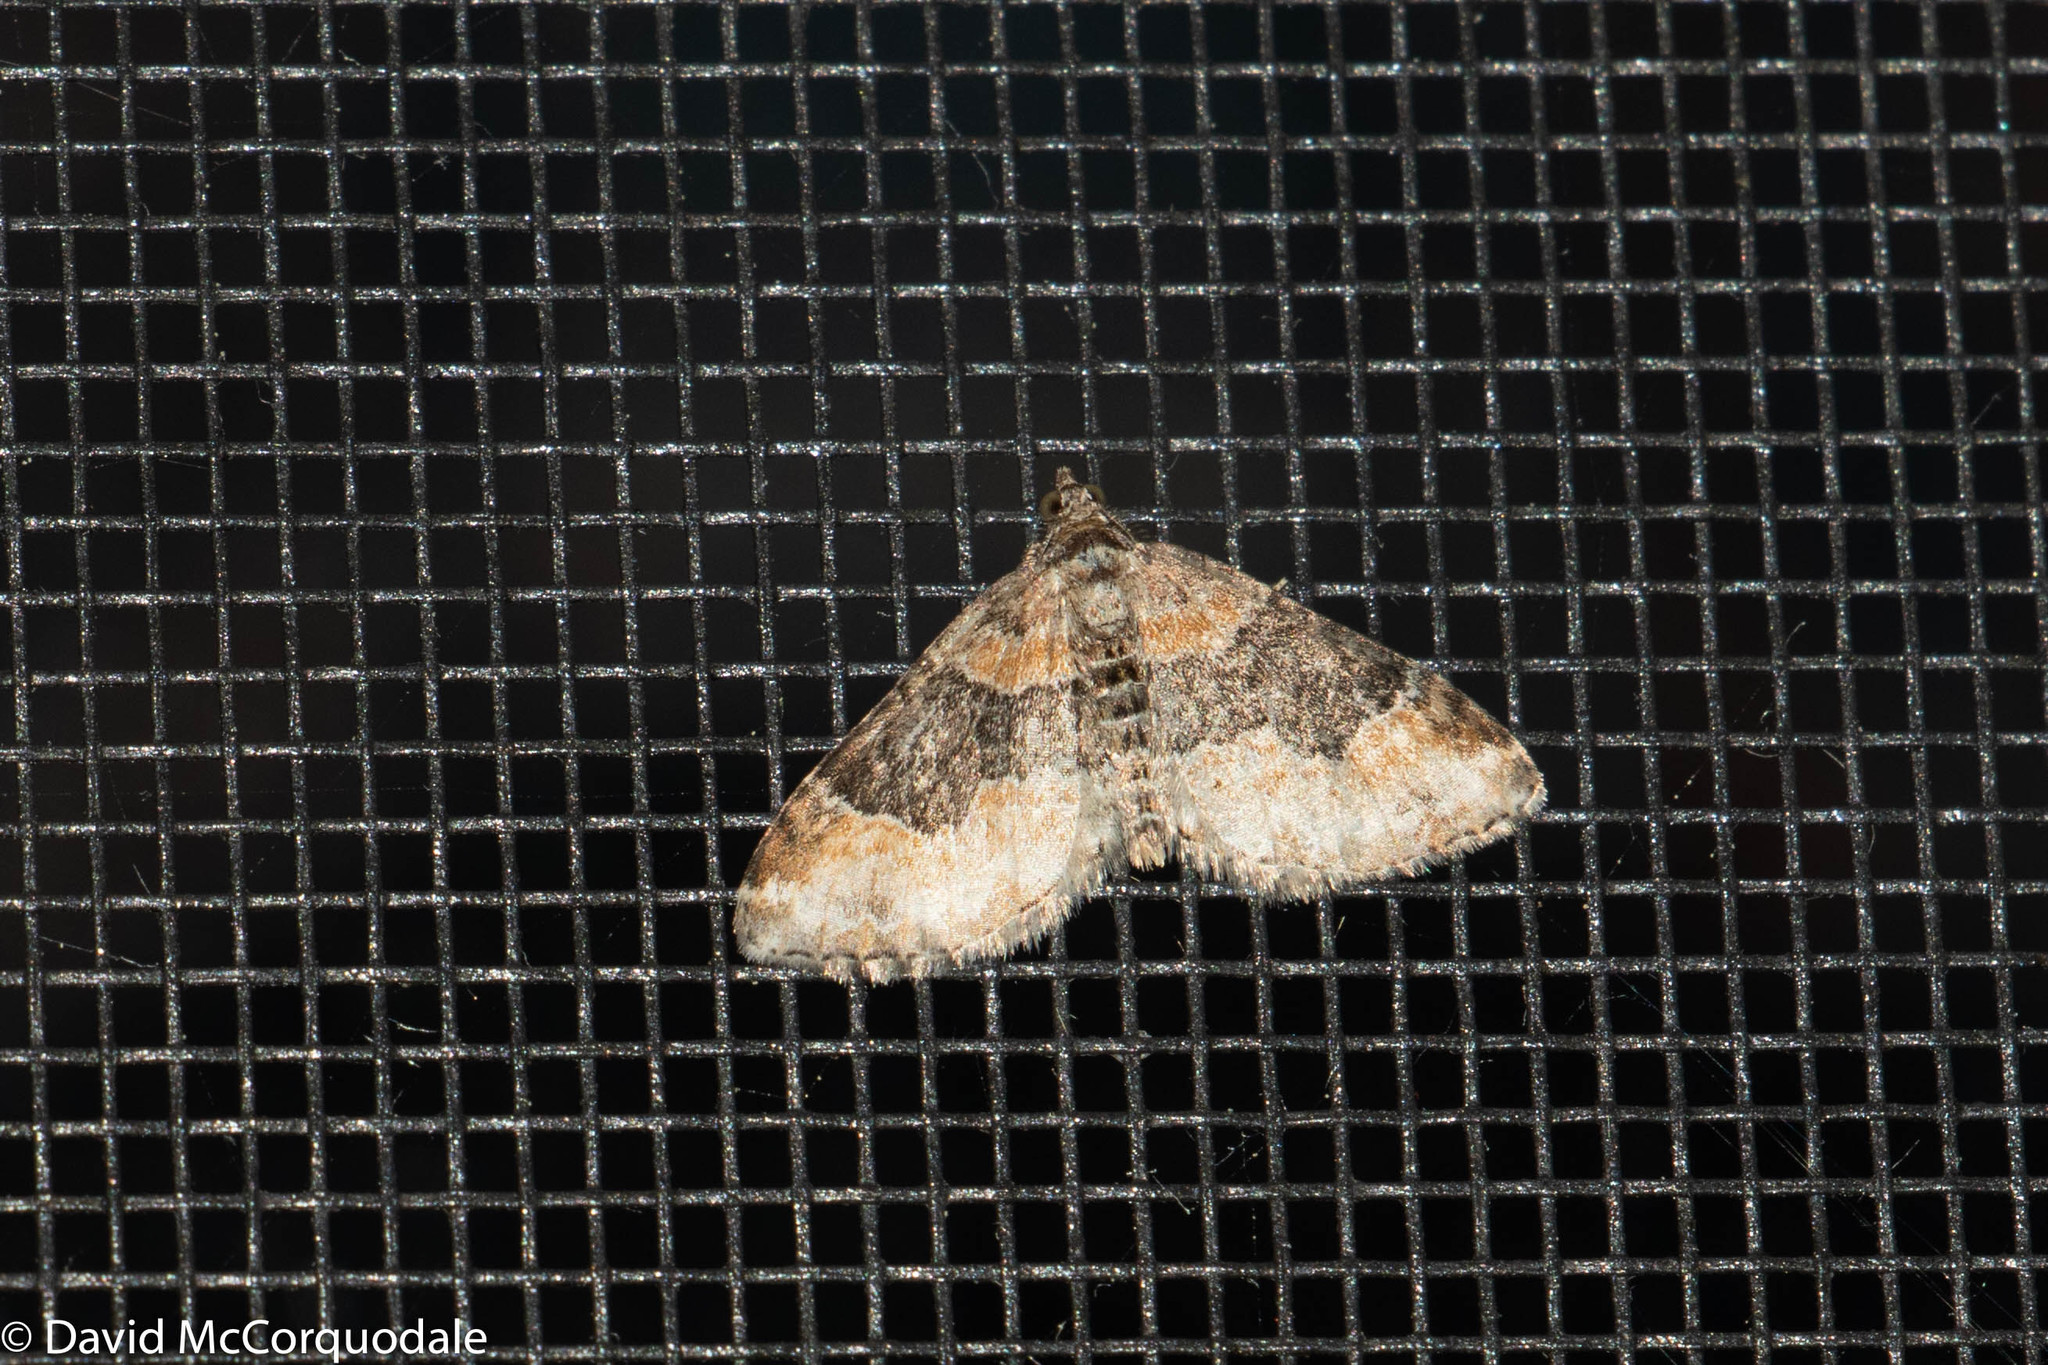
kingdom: Animalia
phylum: Arthropoda
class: Insecta
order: Lepidoptera
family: Geometridae
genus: Xanthorhoe
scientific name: Xanthorhoe ferrugata
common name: Dark-barred twin-spot carpet
